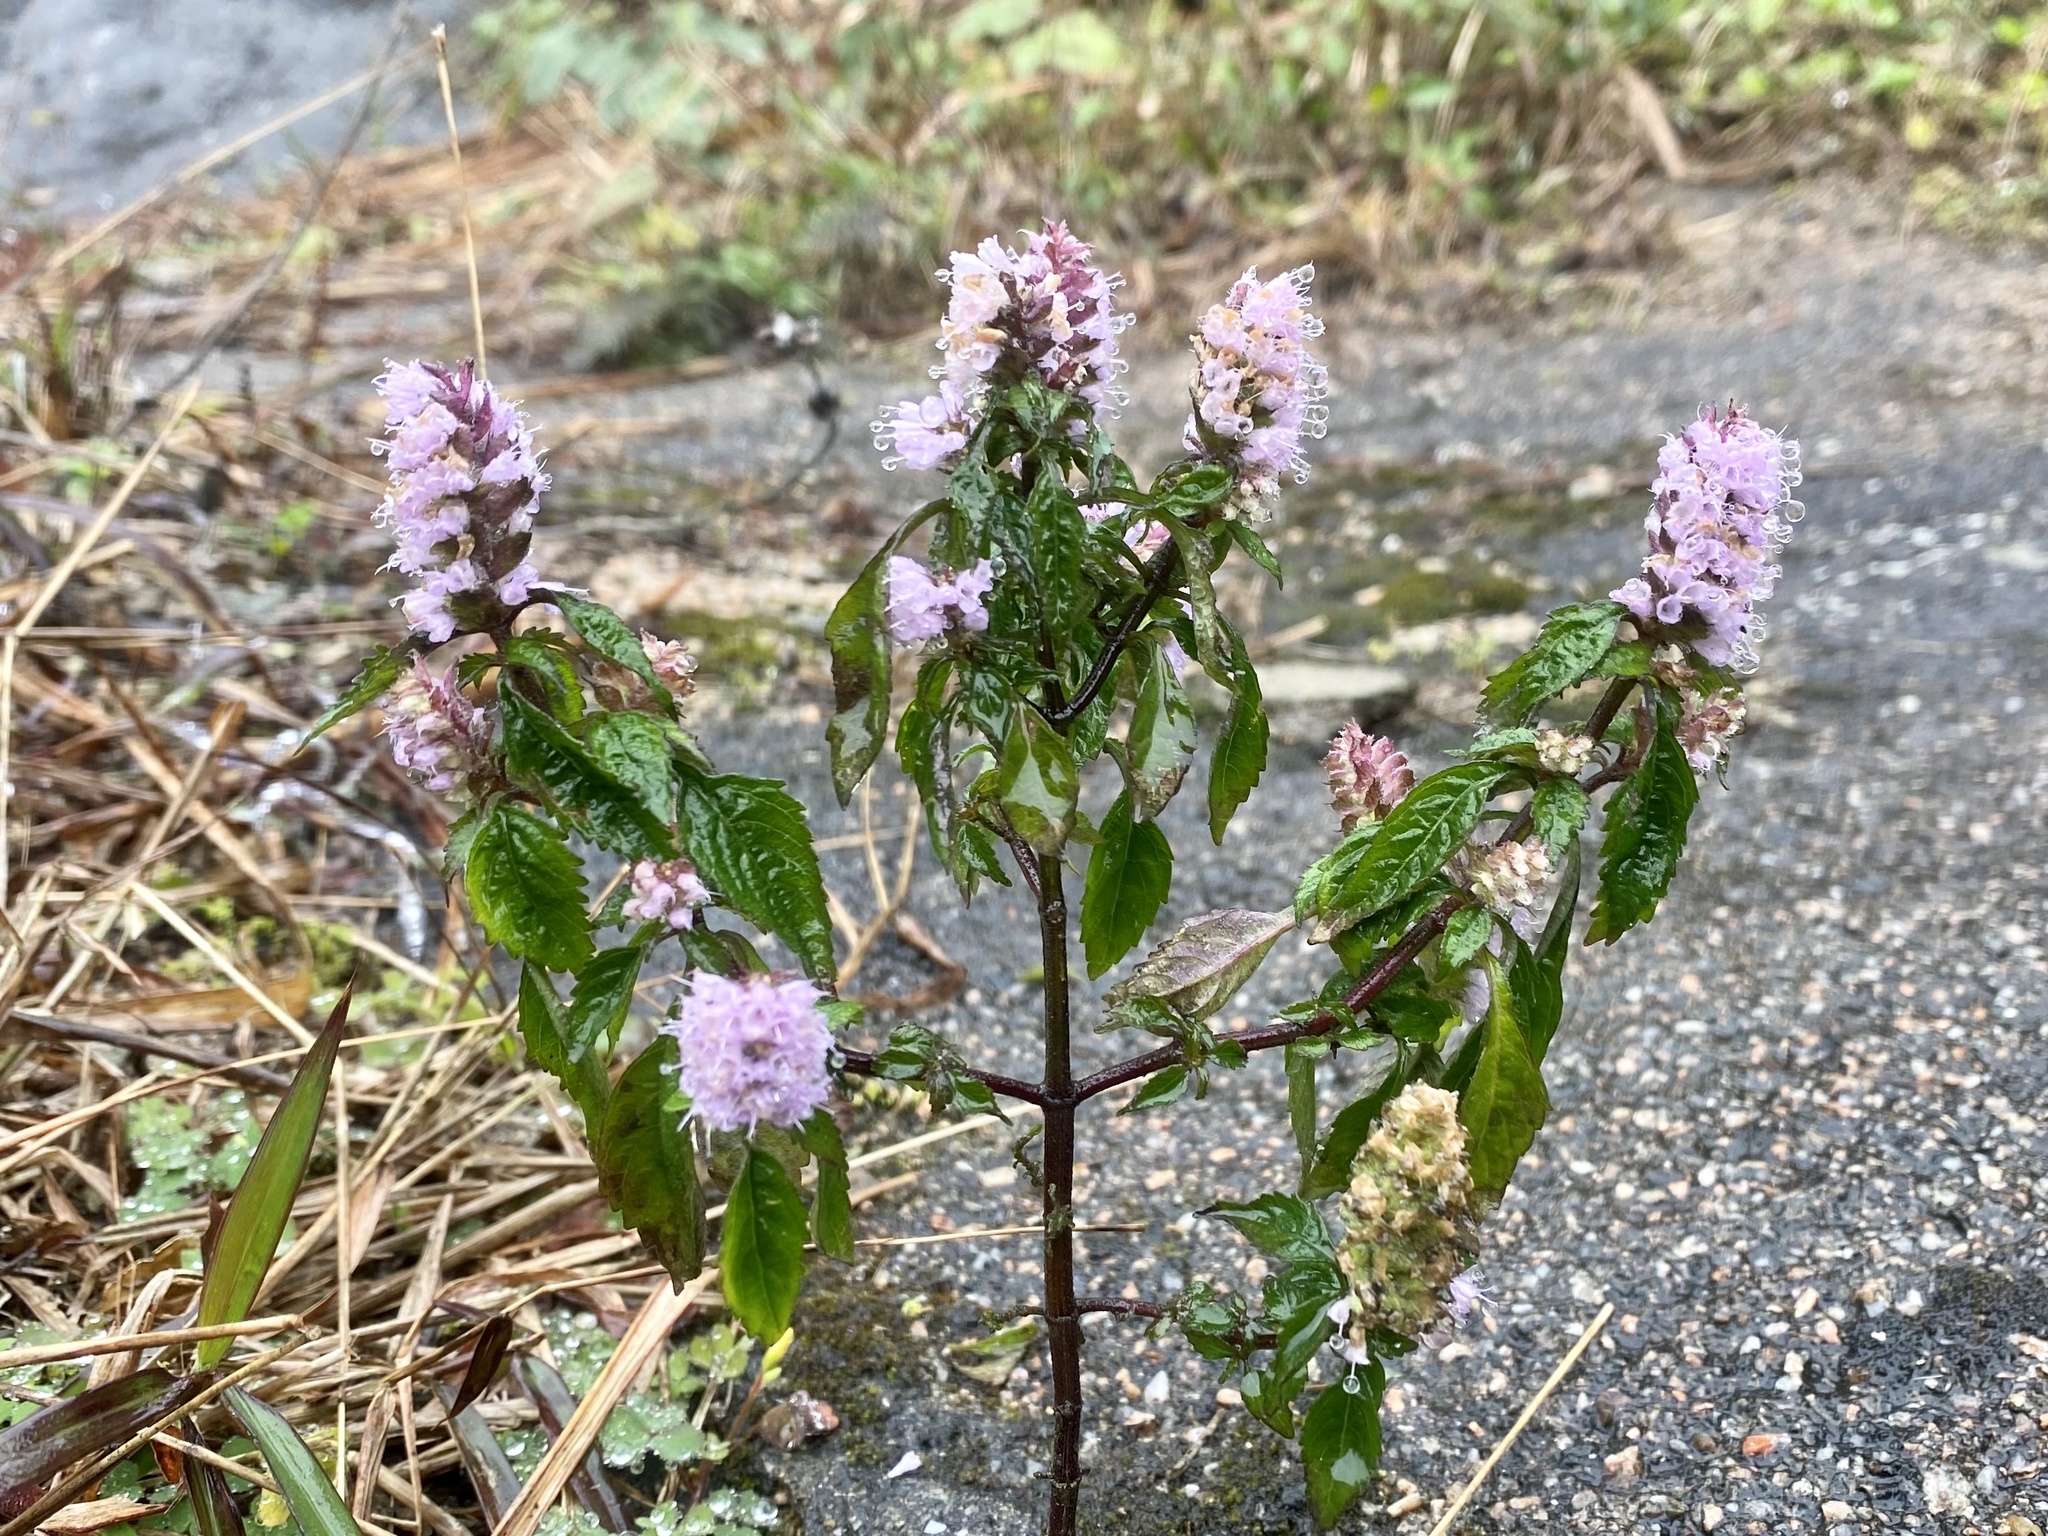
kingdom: Plantae
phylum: Tracheophyta
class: Magnoliopsida
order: Lamiales
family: Lamiaceae
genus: Elsholtzia
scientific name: Elsholtzia argyi
